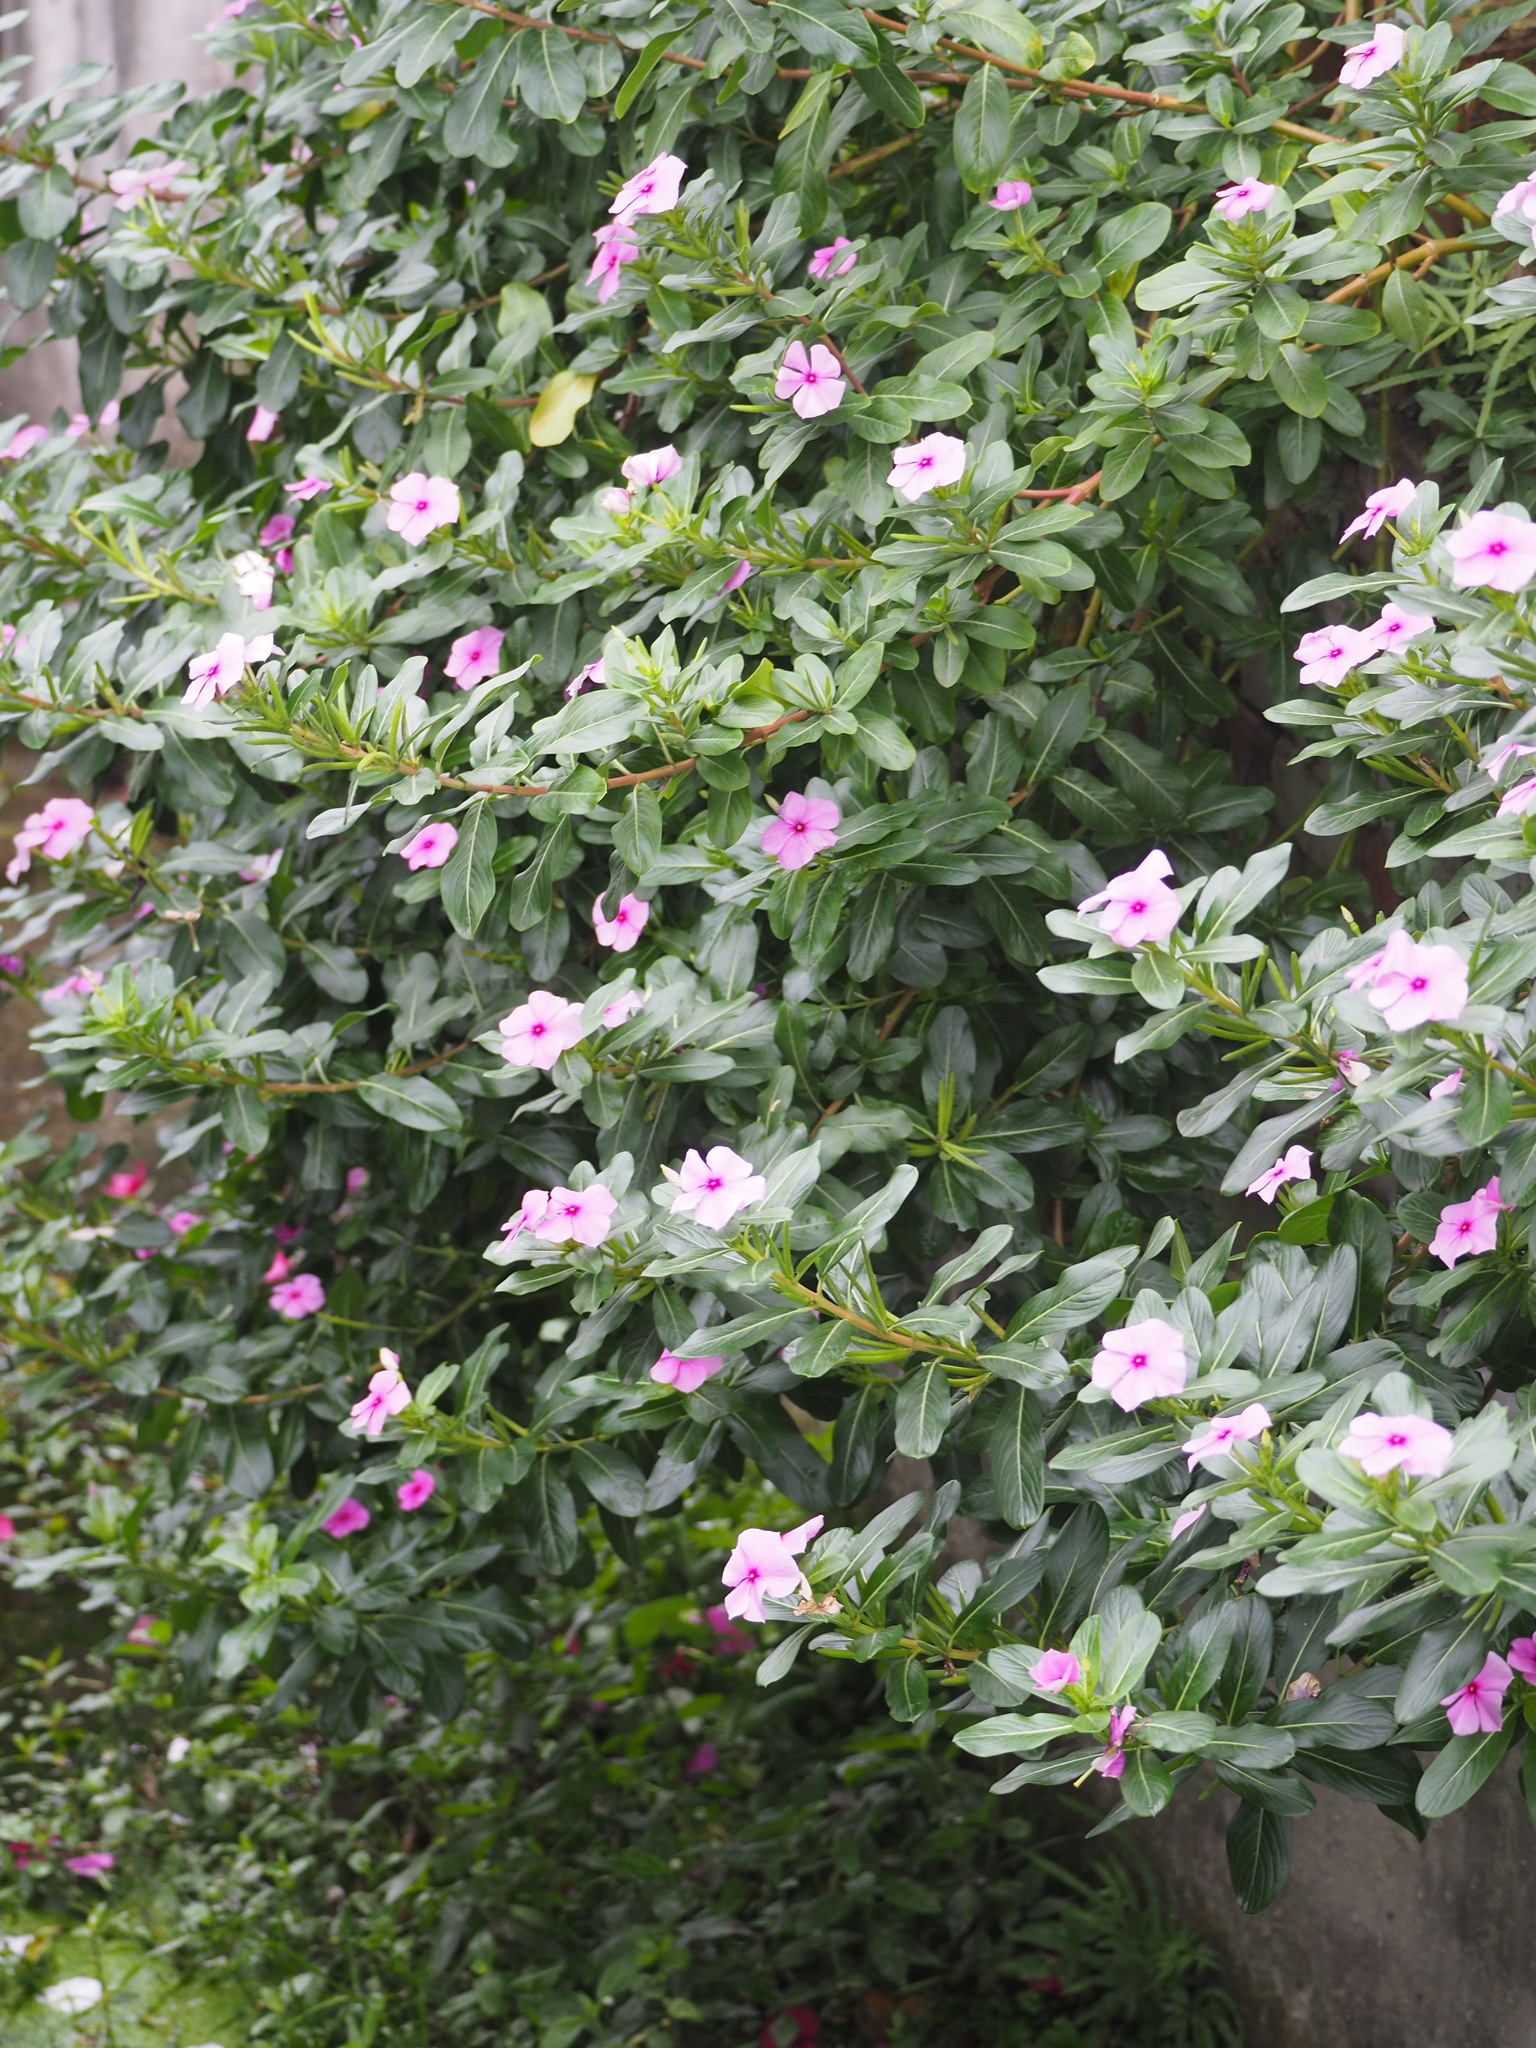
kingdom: Plantae
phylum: Tracheophyta
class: Magnoliopsida
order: Gentianales
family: Apocynaceae
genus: Catharanthus
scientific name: Catharanthus roseus
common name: Madagascar periwinkle
